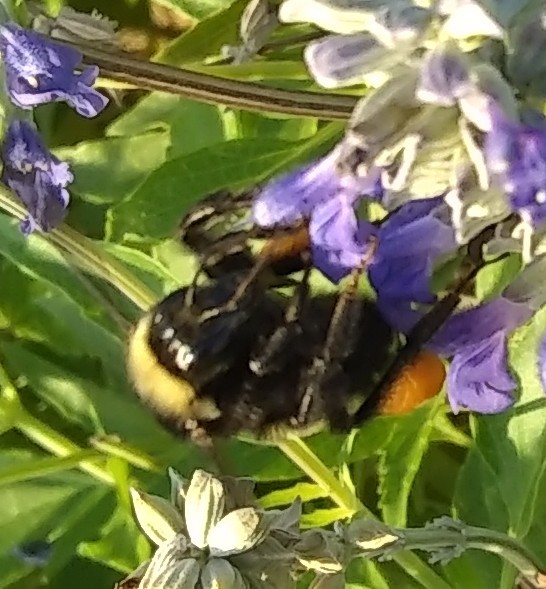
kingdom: Animalia
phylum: Arthropoda
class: Insecta
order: Hymenoptera
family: Apidae
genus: Bombus
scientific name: Bombus pensylvanicus
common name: Bumble bee
